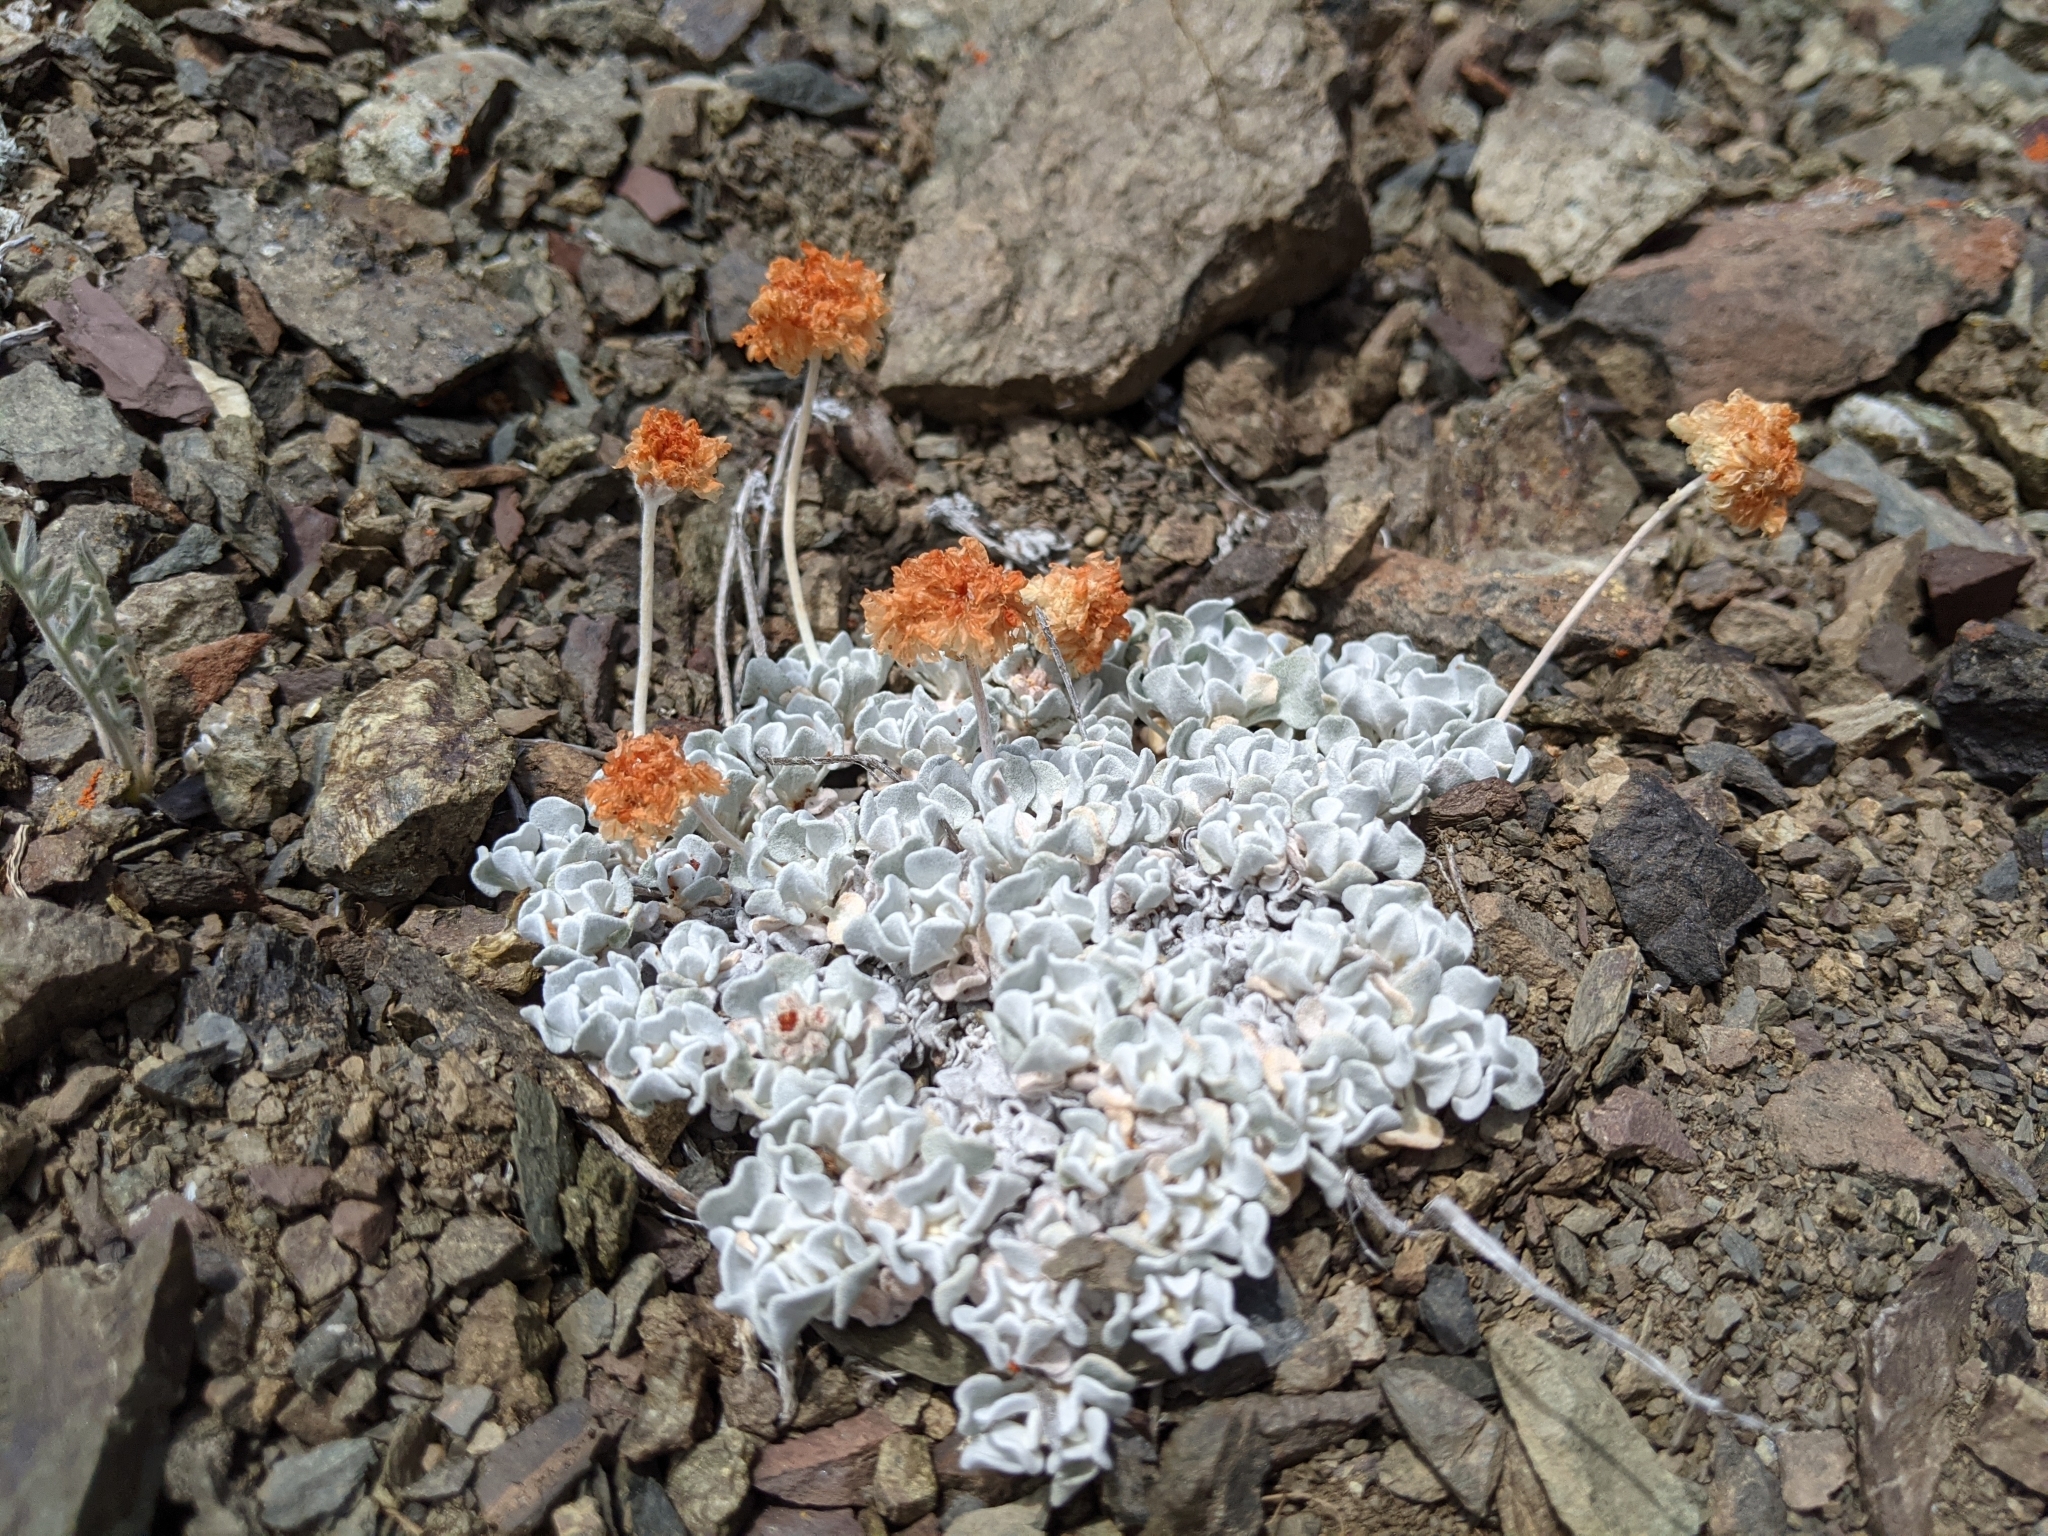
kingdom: Plantae
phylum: Tracheophyta
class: Magnoliopsida
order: Caryophyllales
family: Polygonaceae
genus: Eriogonum
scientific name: Eriogonum ovalifolium
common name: Cushion buckwheat
